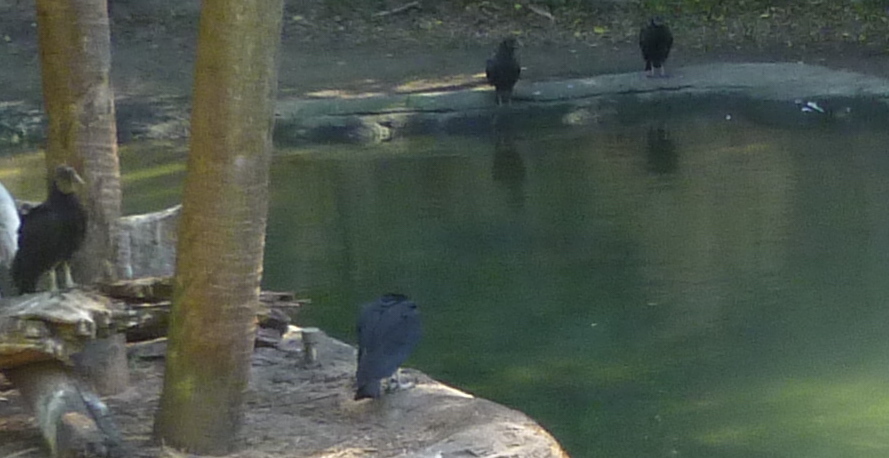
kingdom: Animalia
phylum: Chordata
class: Aves
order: Accipitriformes
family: Cathartidae
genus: Coragyps
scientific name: Coragyps atratus
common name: Black vulture
